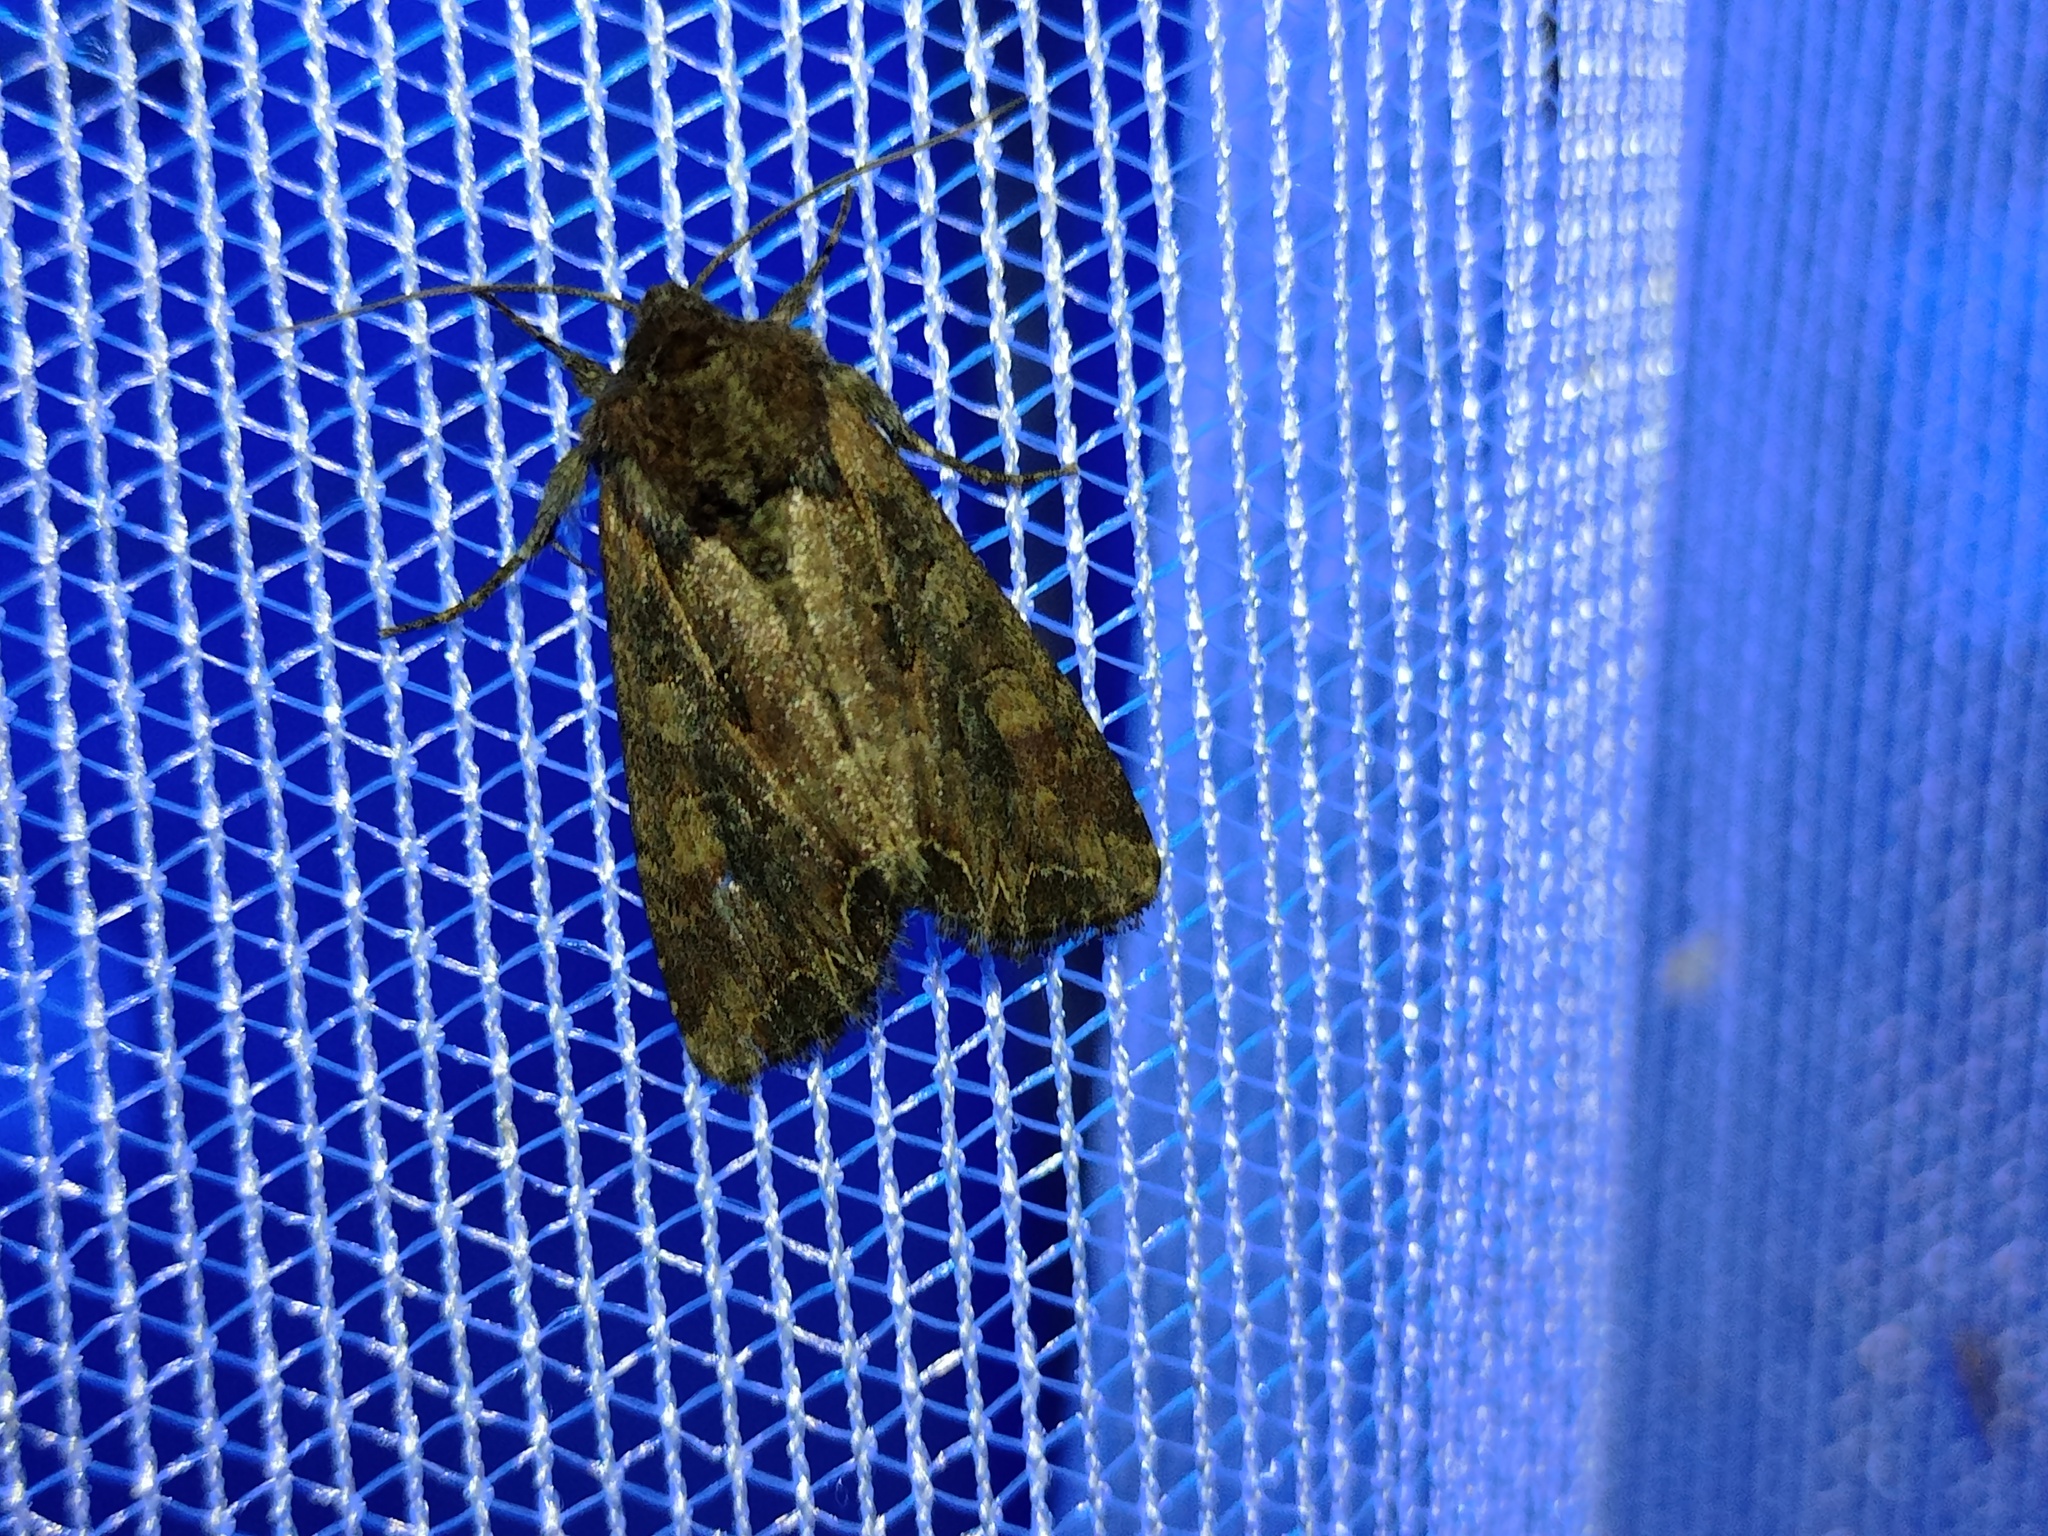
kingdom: Animalia
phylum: Arthropoda
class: Insecta
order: Lepidoptera
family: Noctuidae
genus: Lacanobia
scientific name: Lacanobia suasa
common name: Dog's tooth
